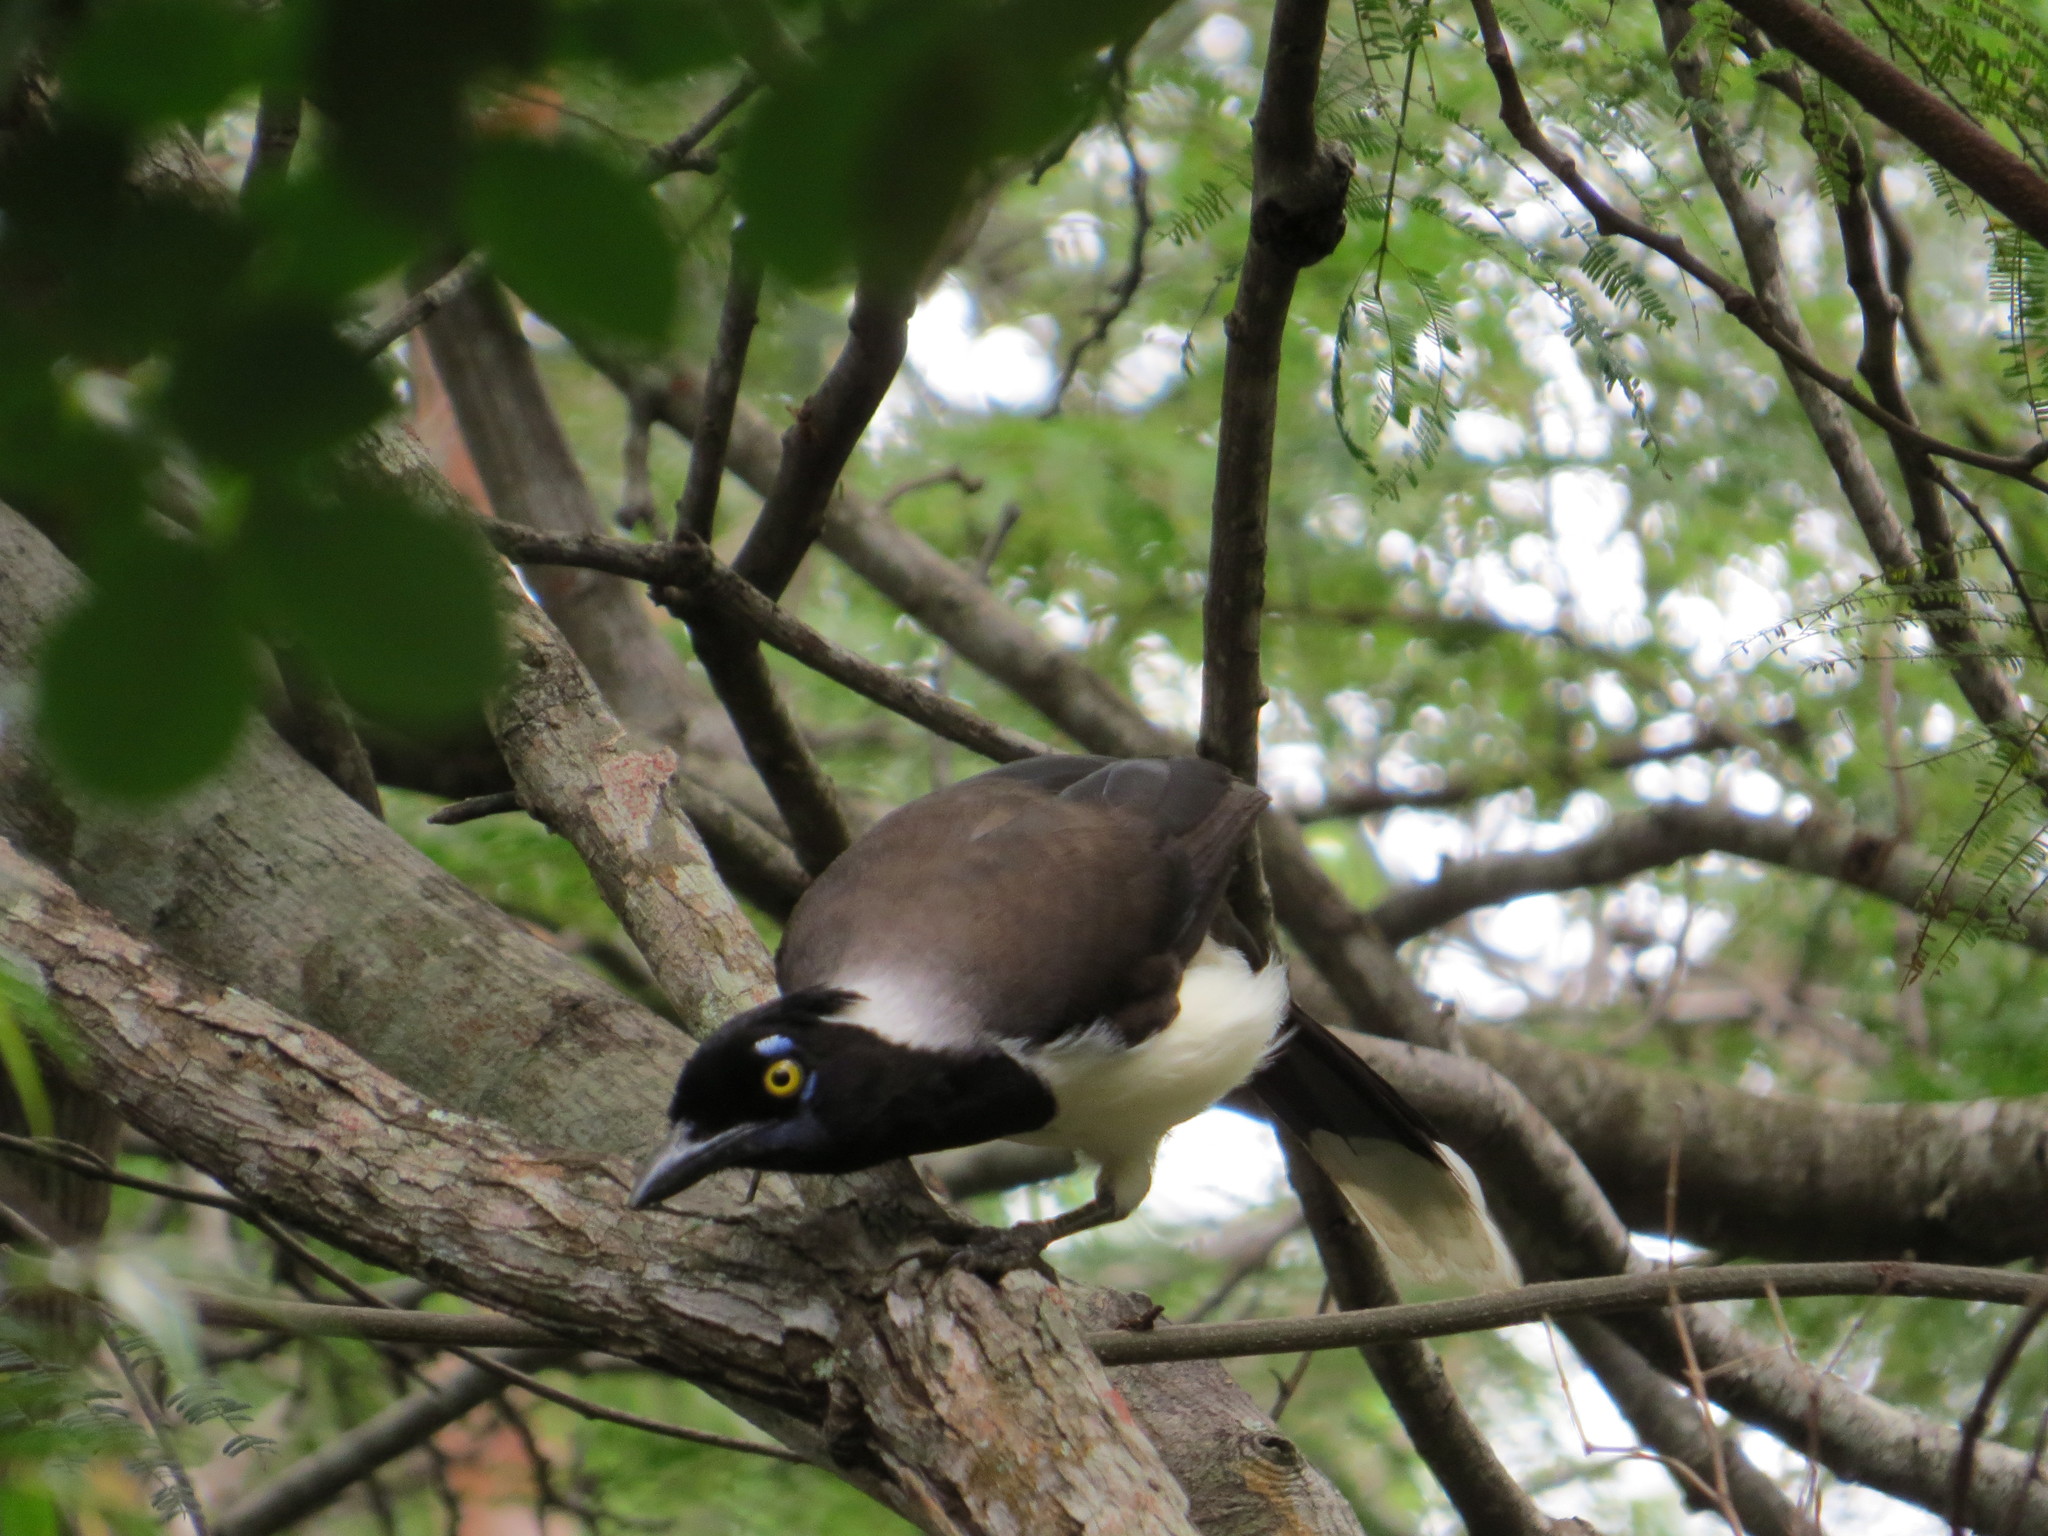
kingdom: Animalia
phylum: Chordata
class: Aves
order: Passeriformes
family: Corvidae
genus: Cyanocorax
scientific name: Cyanocorax cyanopogon
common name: White-naped jay
